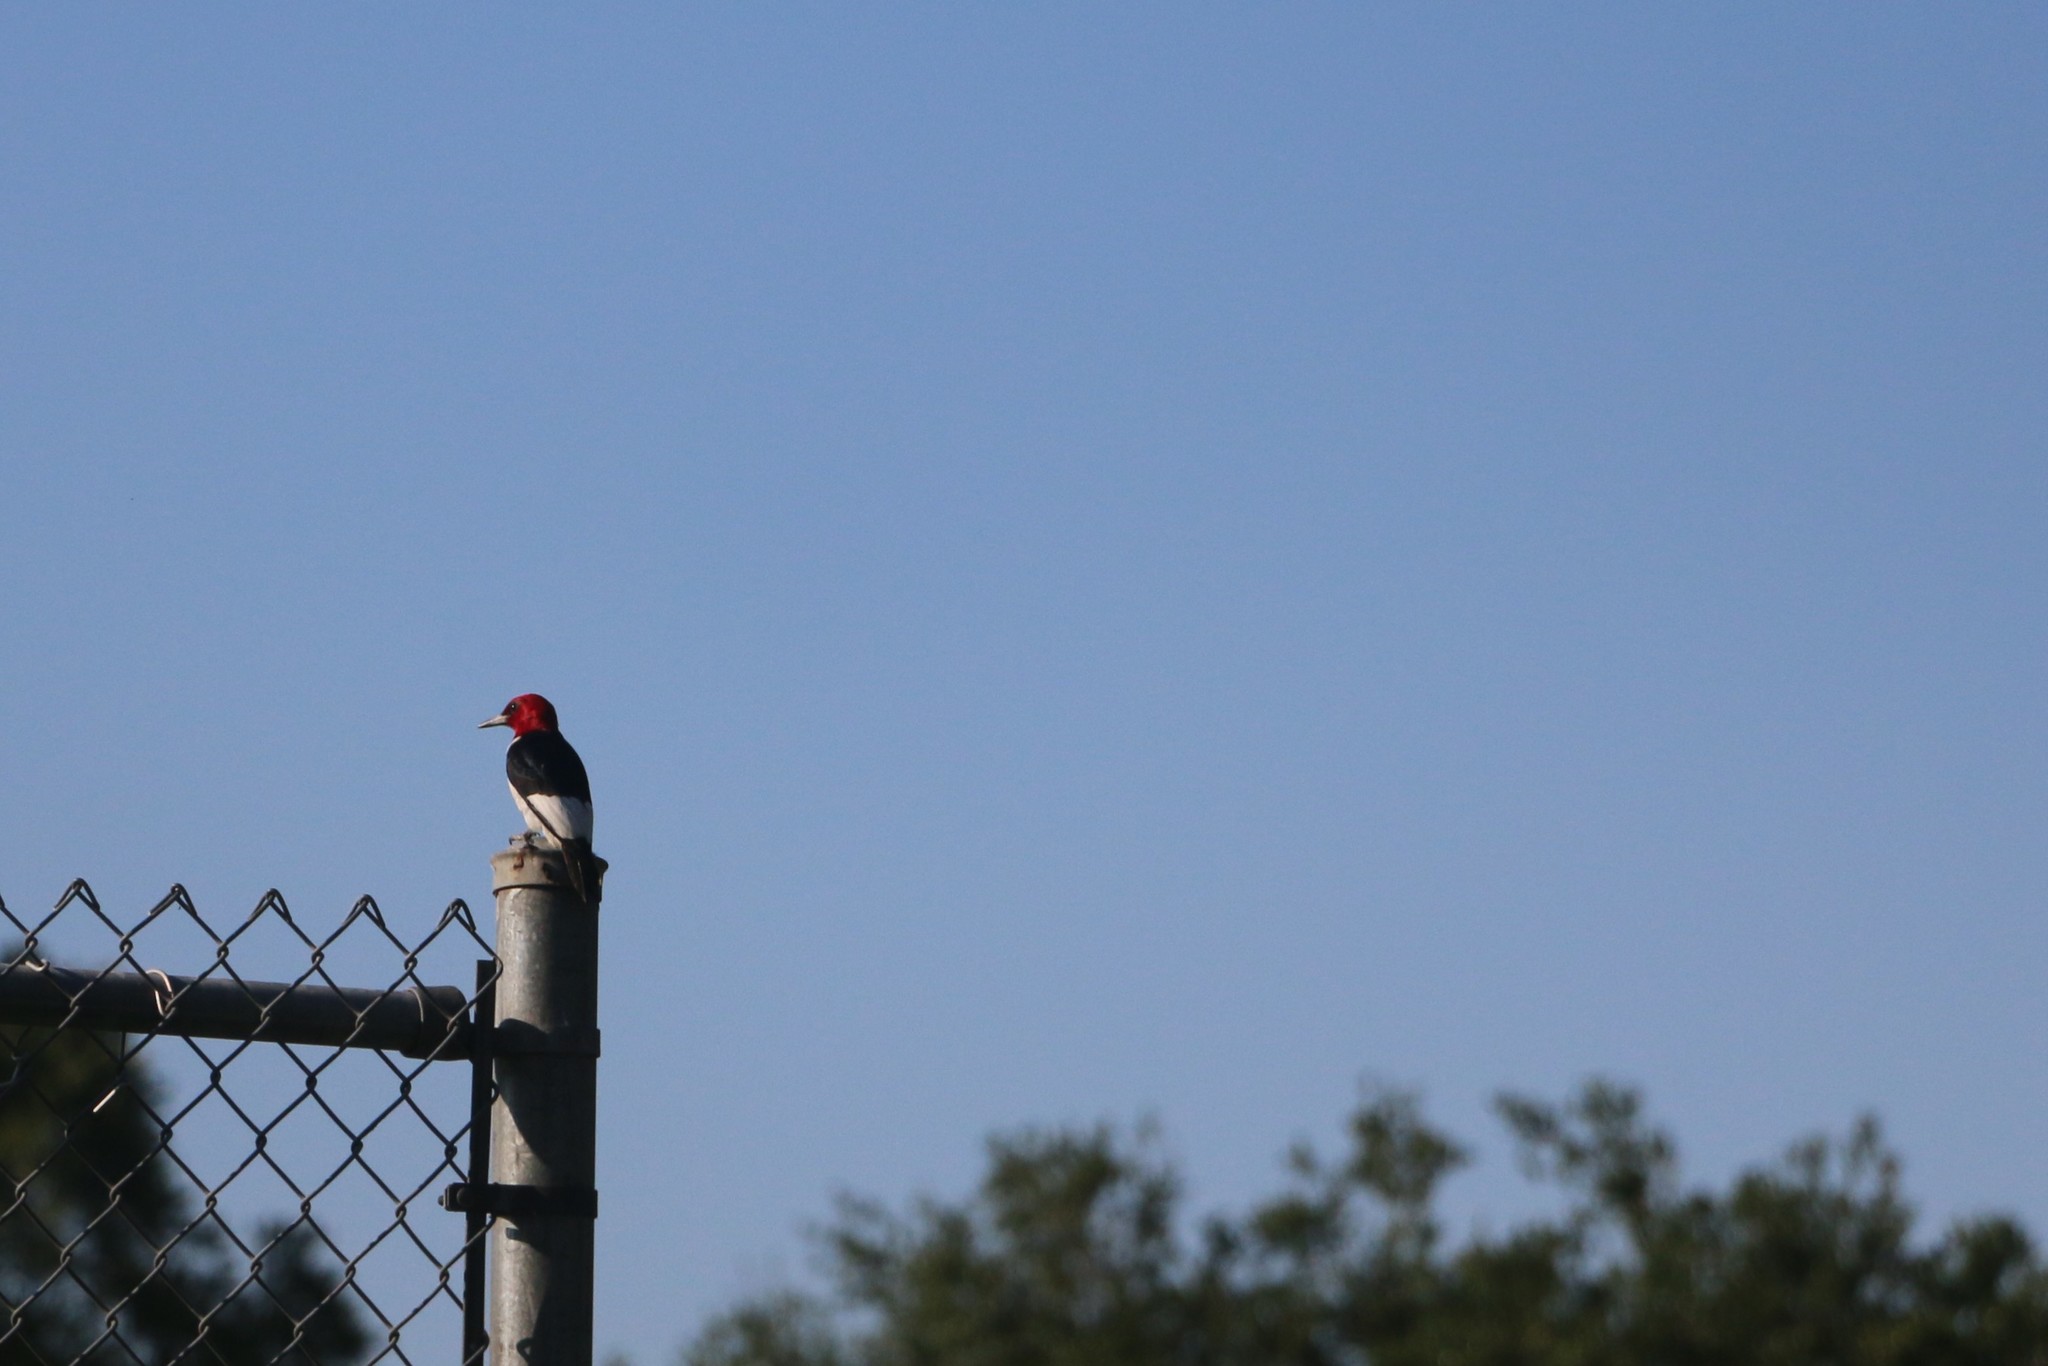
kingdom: Animalia
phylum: Chordata
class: Aves
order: Piciformes
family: Picidae
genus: Melanerpes
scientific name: Melanerpes erythrocephalus
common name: Red-headed woodpecker
